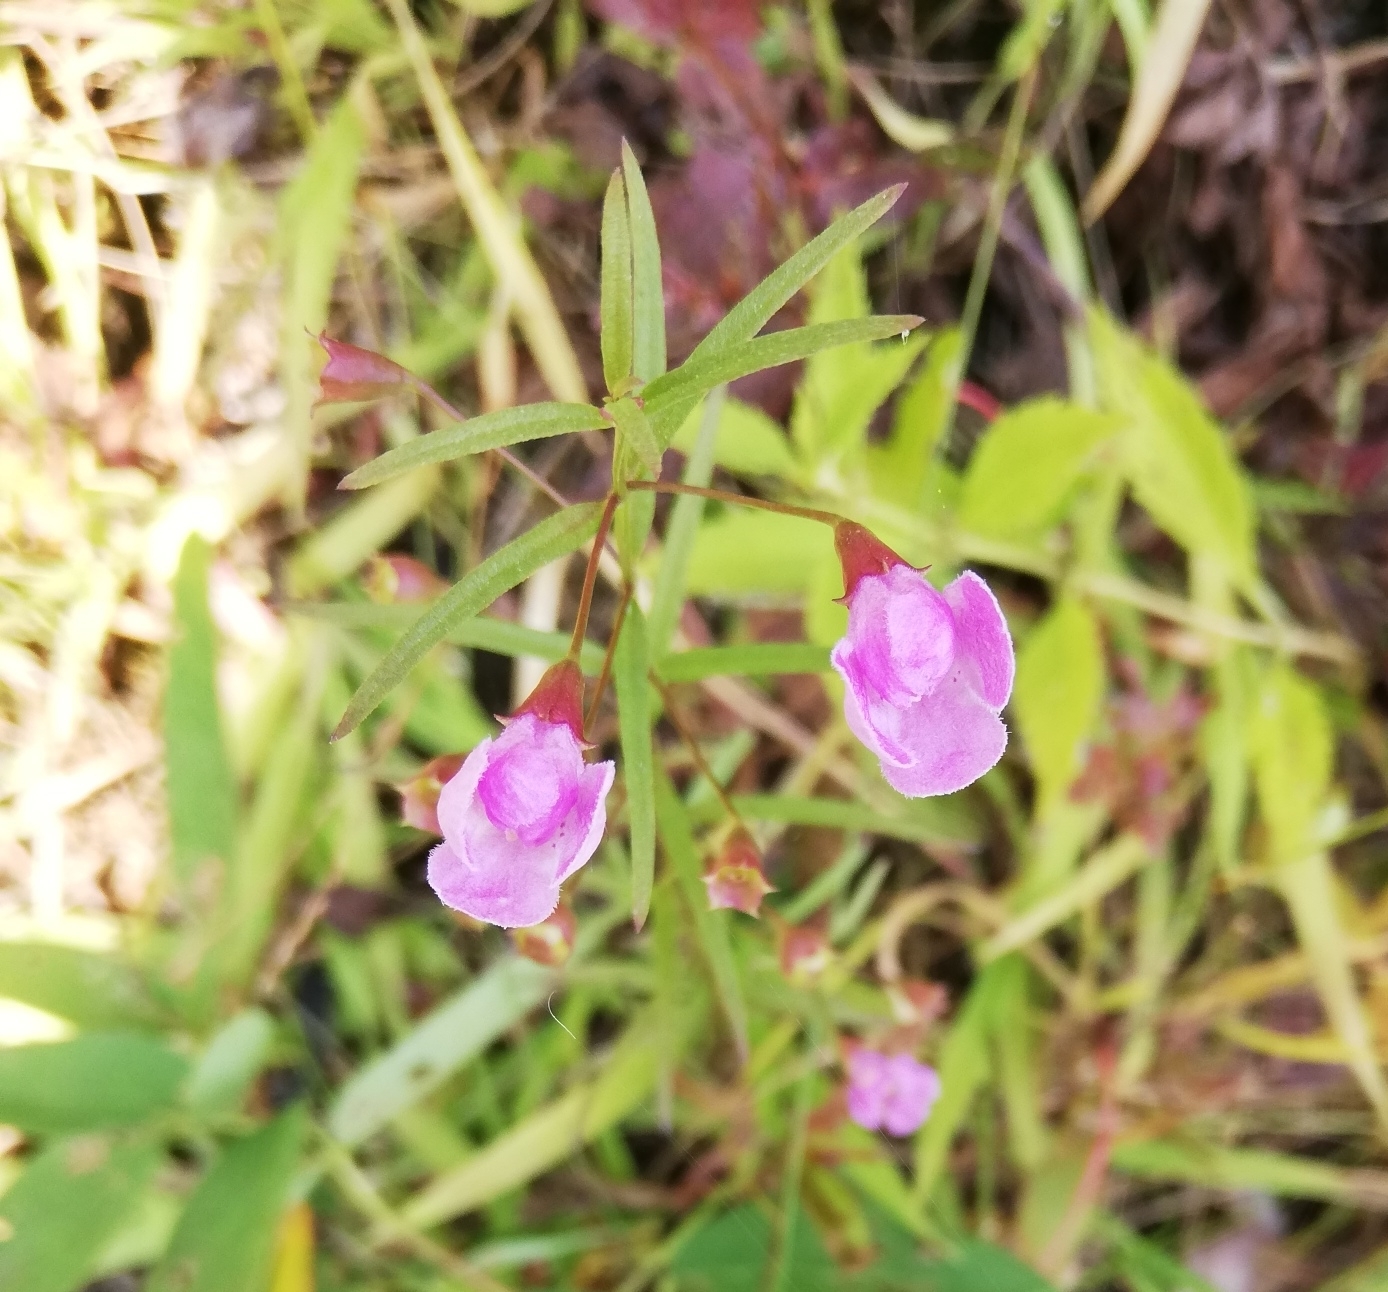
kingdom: Plantae
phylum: Tracheophyta
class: Magnoliopsida
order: Lamiales
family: Orobanchaceae
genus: Agalinis
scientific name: Agalinis tenuifolia
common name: Slender agalinis
